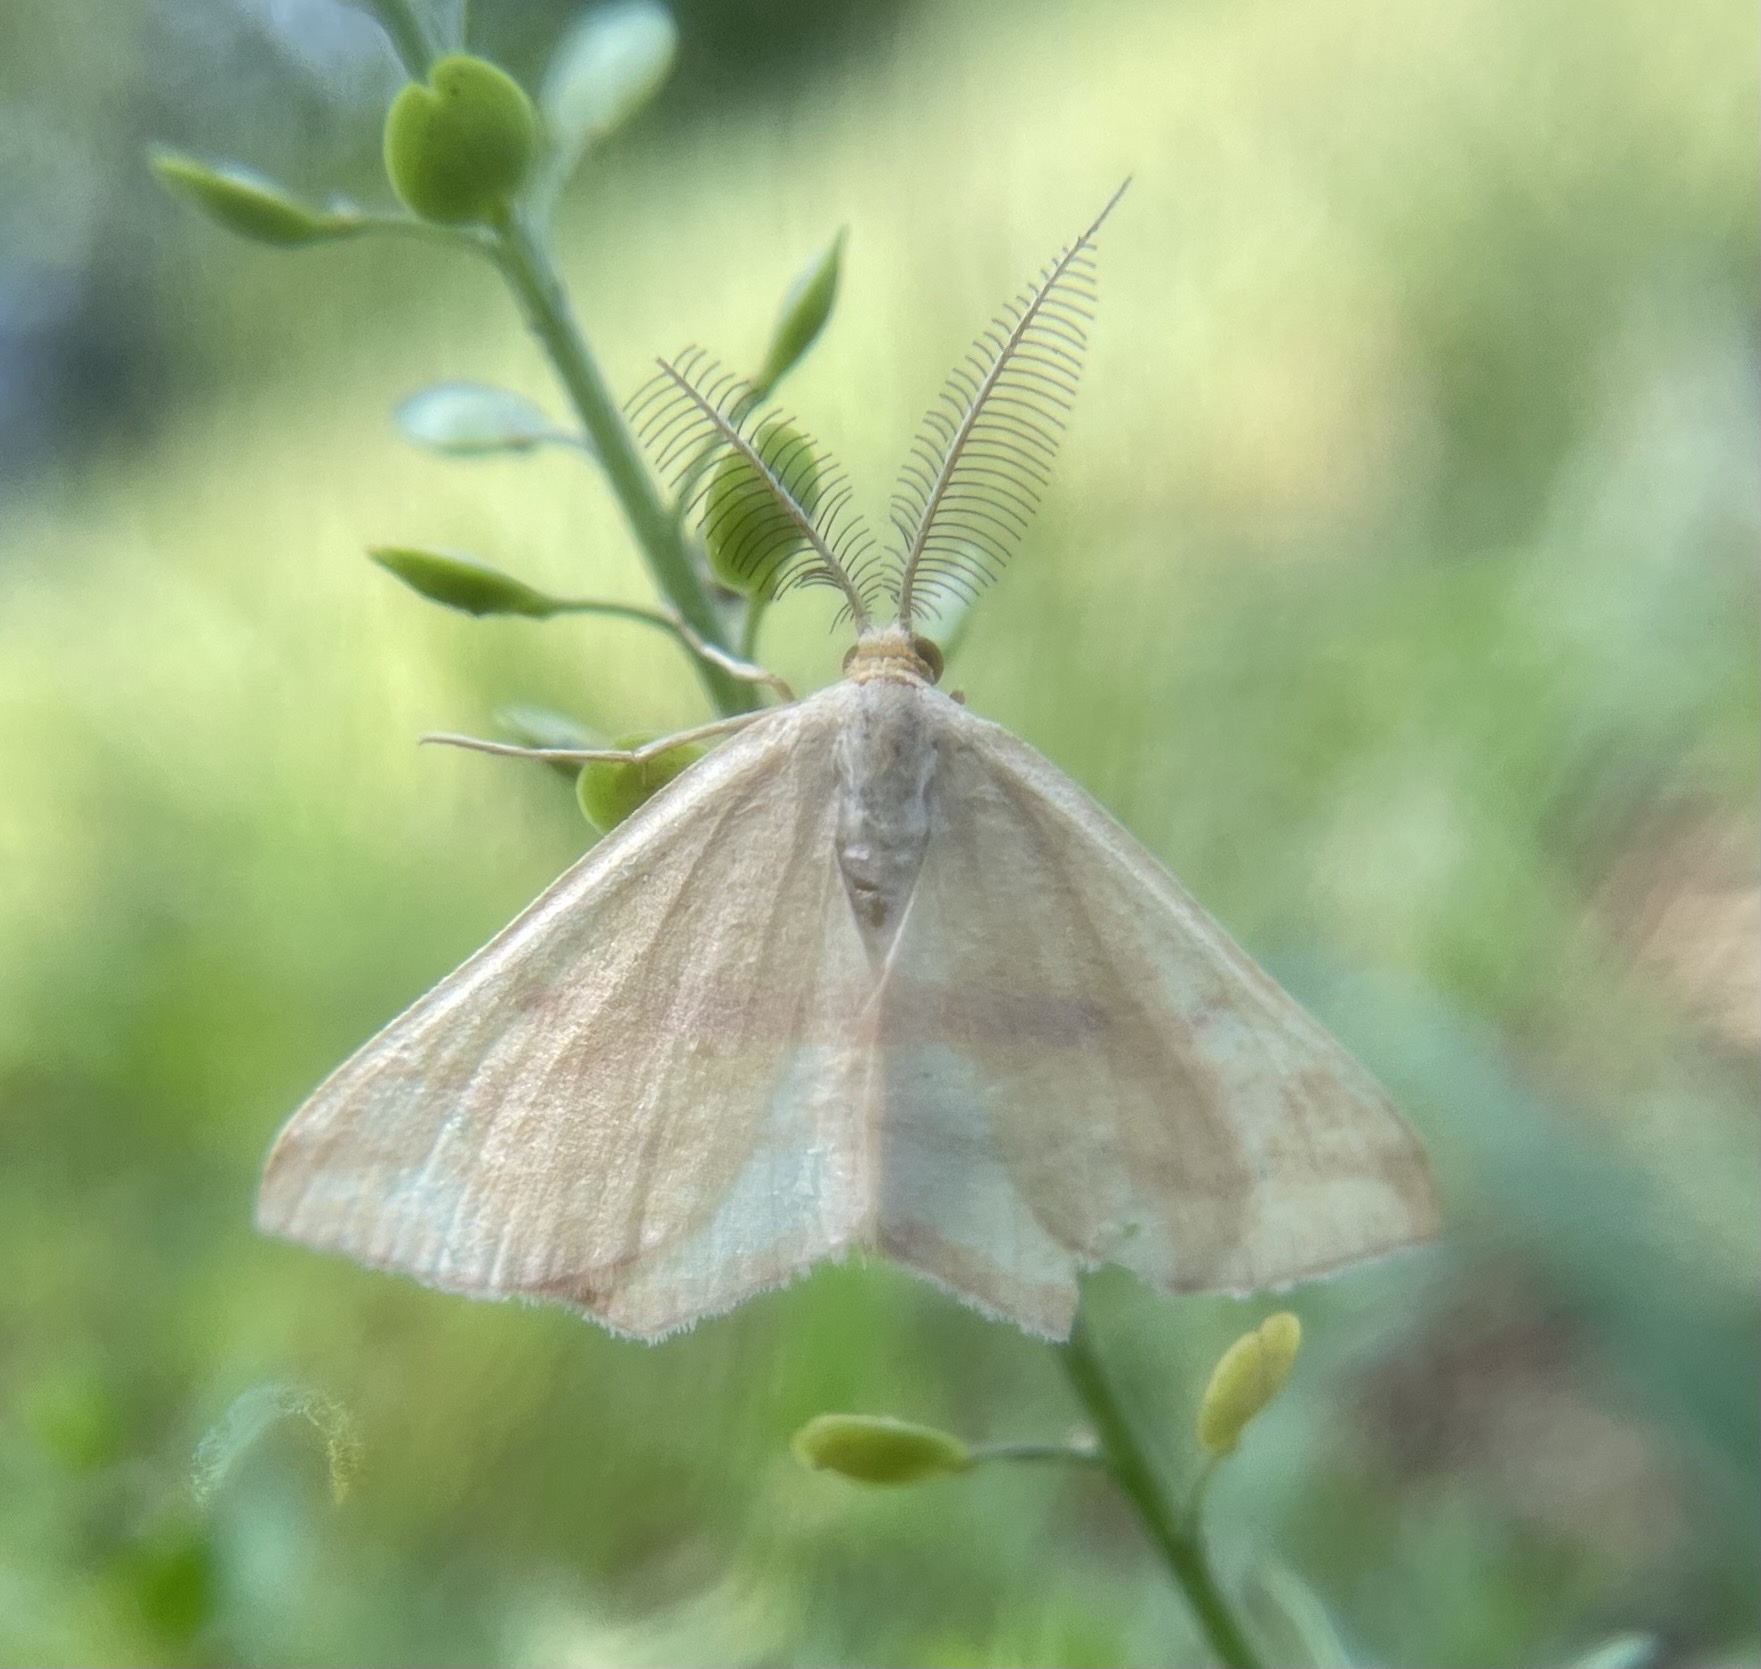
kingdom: Animalia
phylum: Arthropoda
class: Insecta
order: Lepidoptera
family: Geometridae
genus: Haematopis
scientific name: Haematopis grataria
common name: Chickweed geometer
